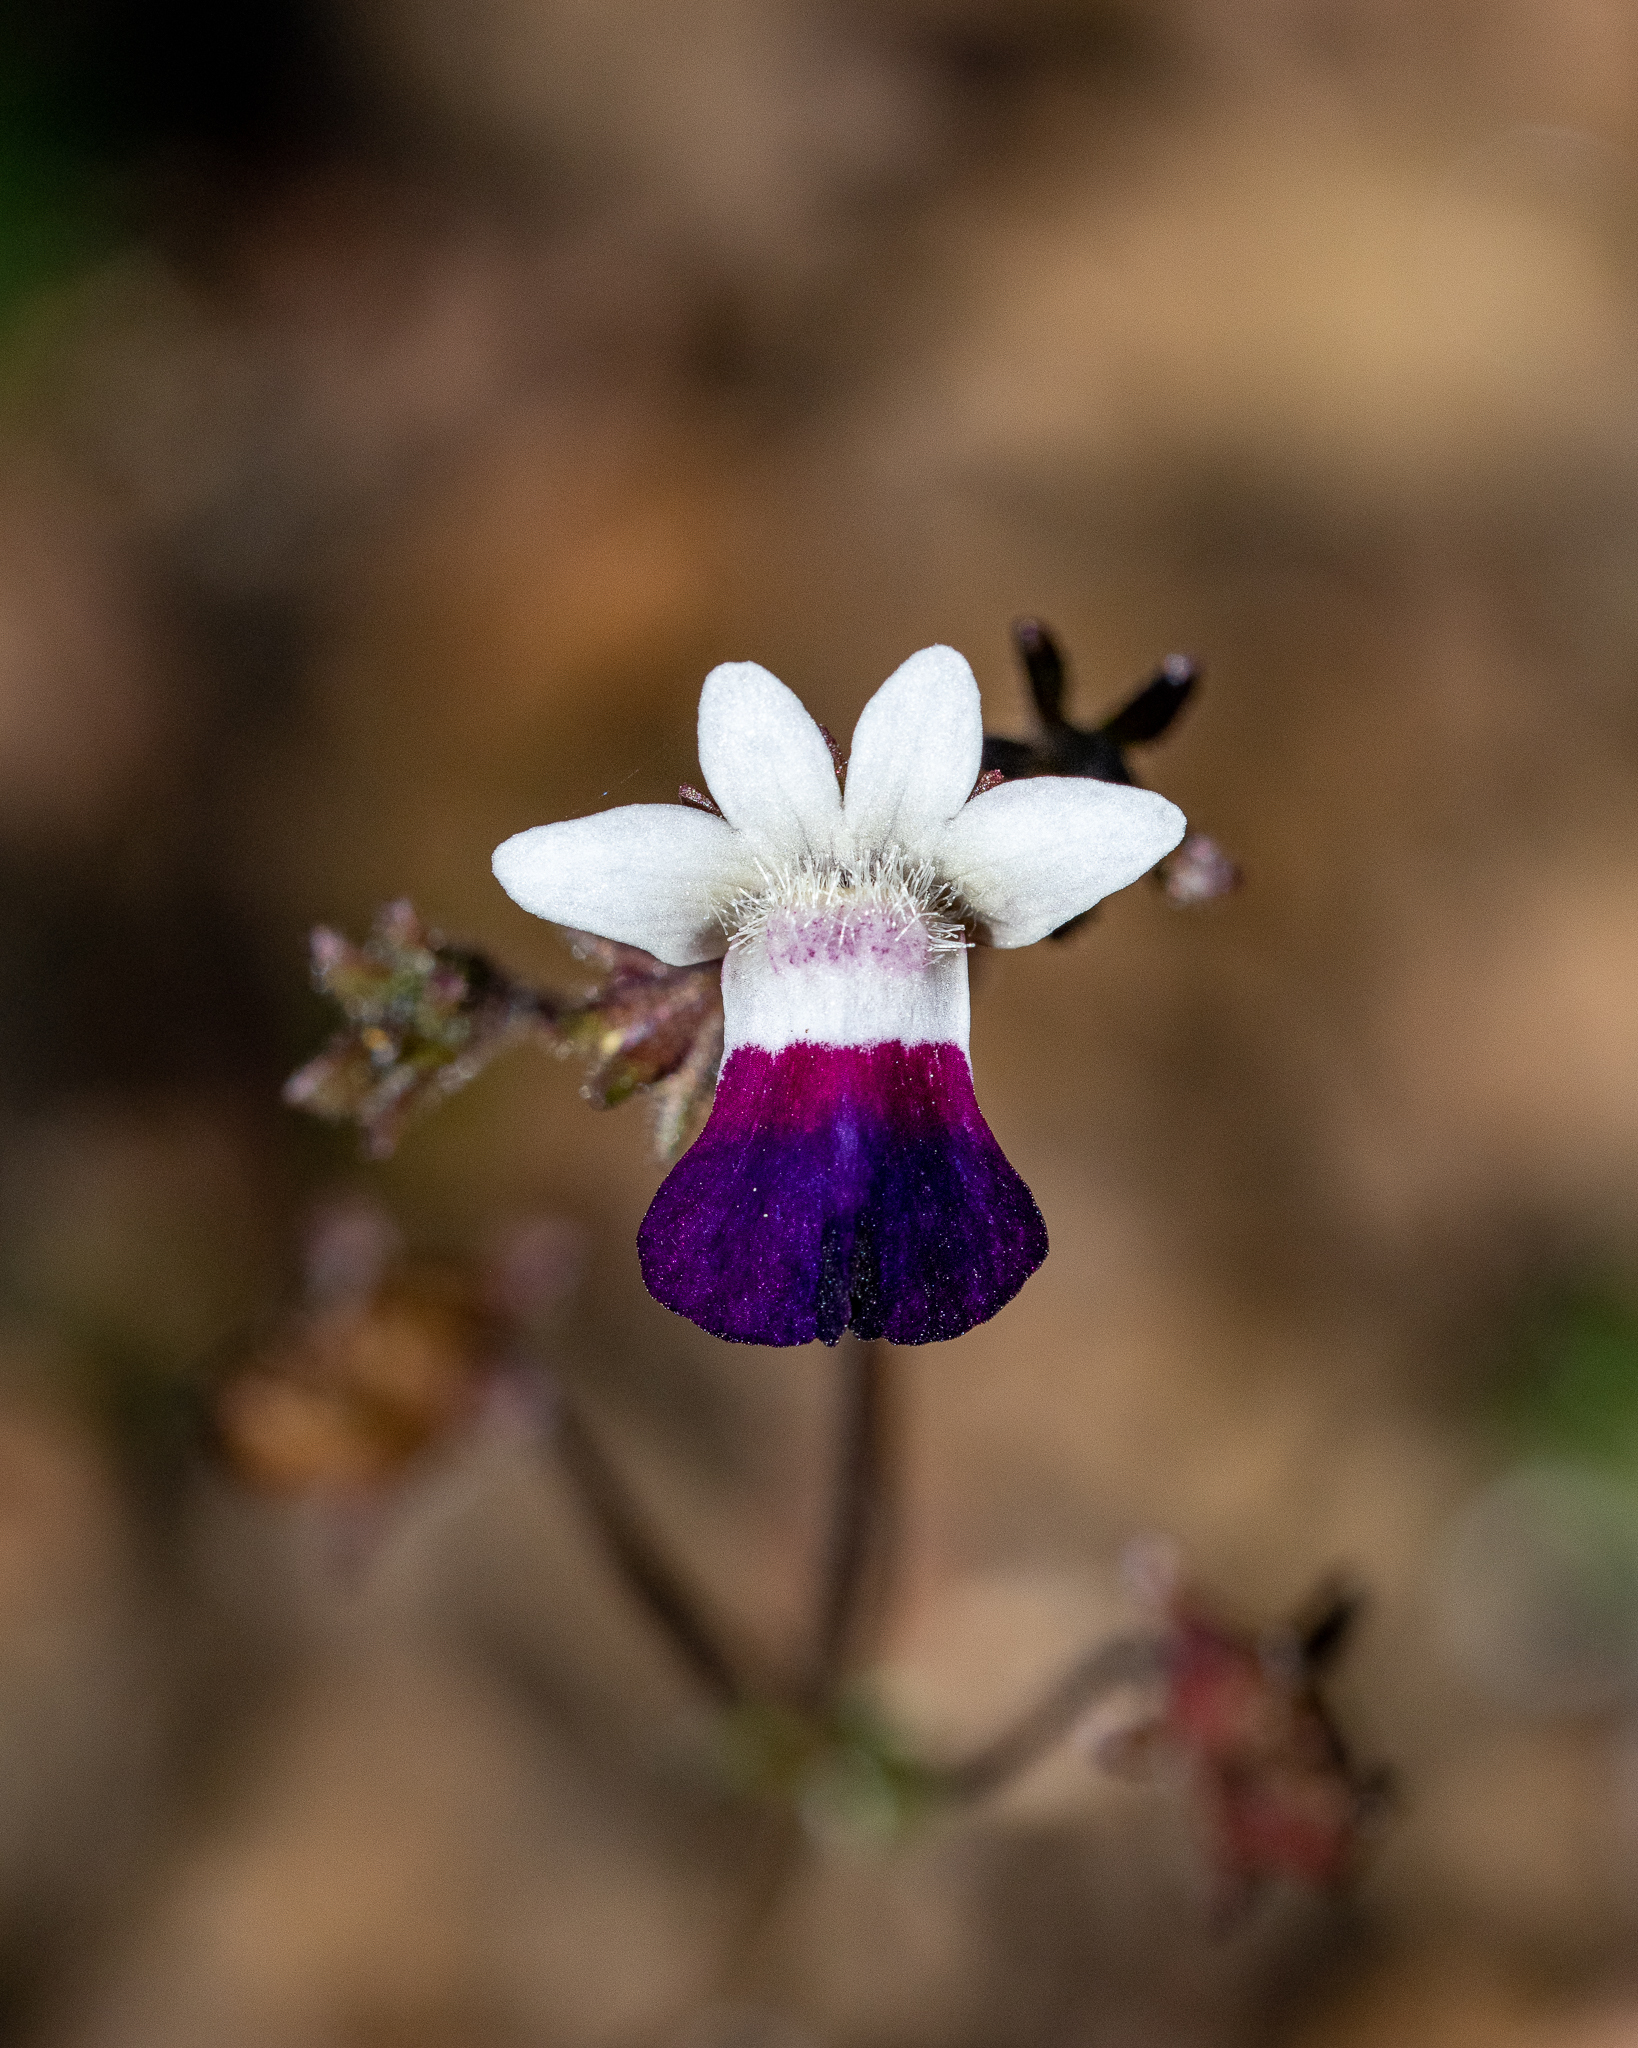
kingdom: Plantae
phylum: Tracheophyta
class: Magnoliopsida
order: Lamiales
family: Scrophulariaceae
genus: Nemesia
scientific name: Nemesia barbata
